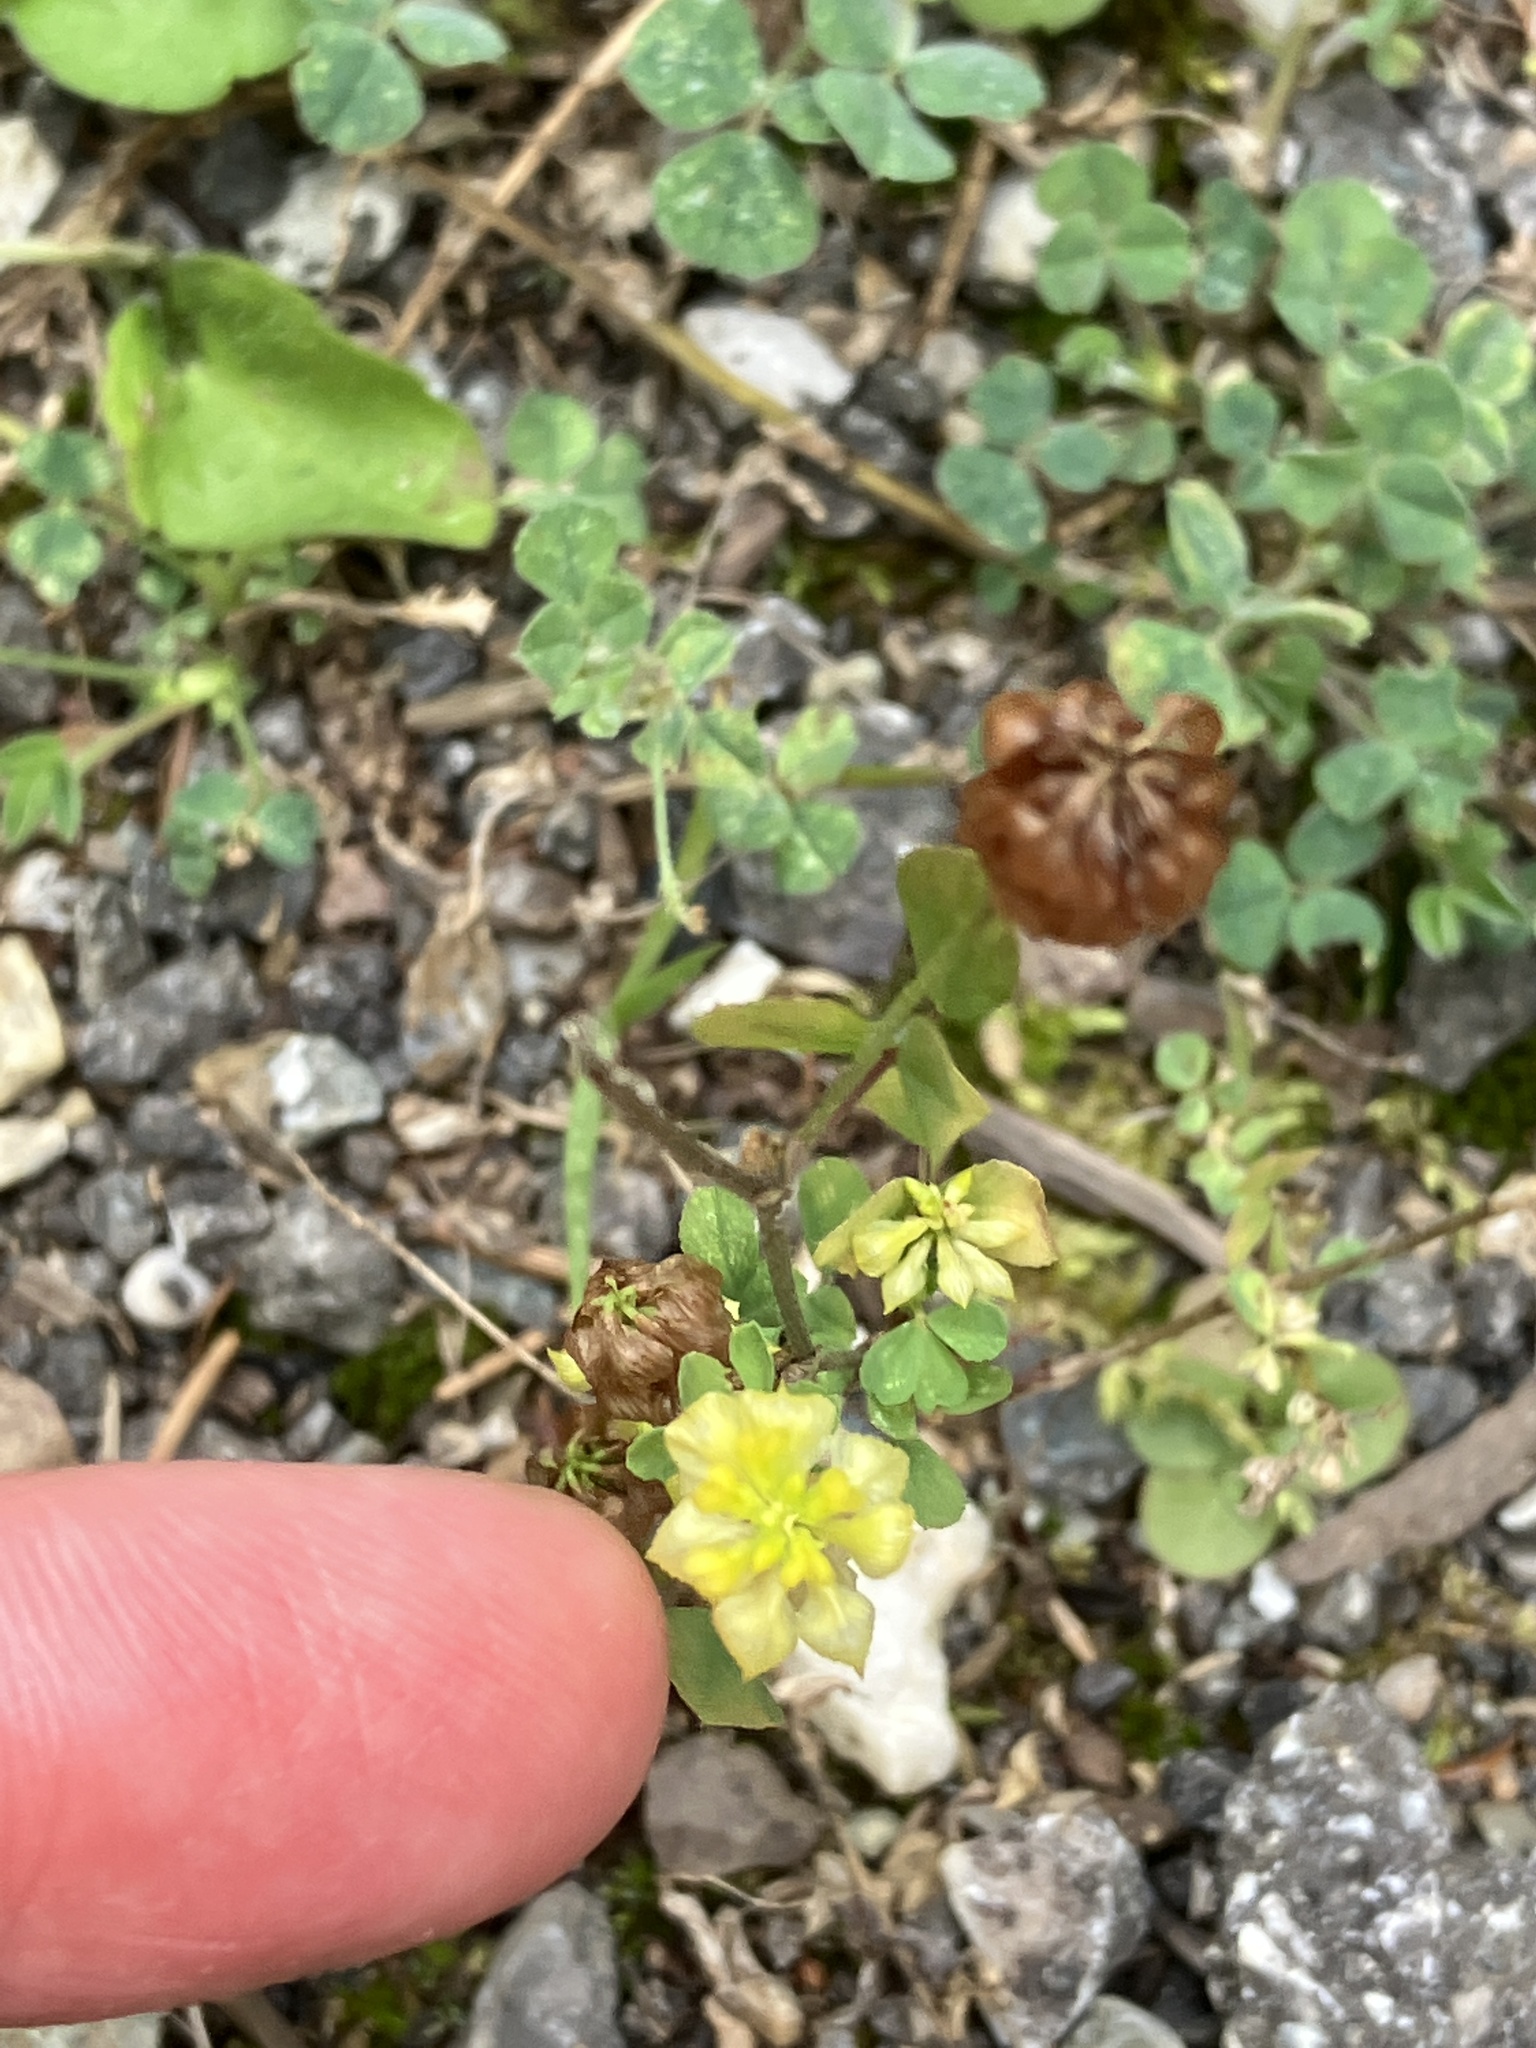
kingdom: Plantae
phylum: Tracheophyta
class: Magnoliopsida
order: Fabales
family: Fabaceae
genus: Trifolium
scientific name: Trifolium campestre
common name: Field clover
